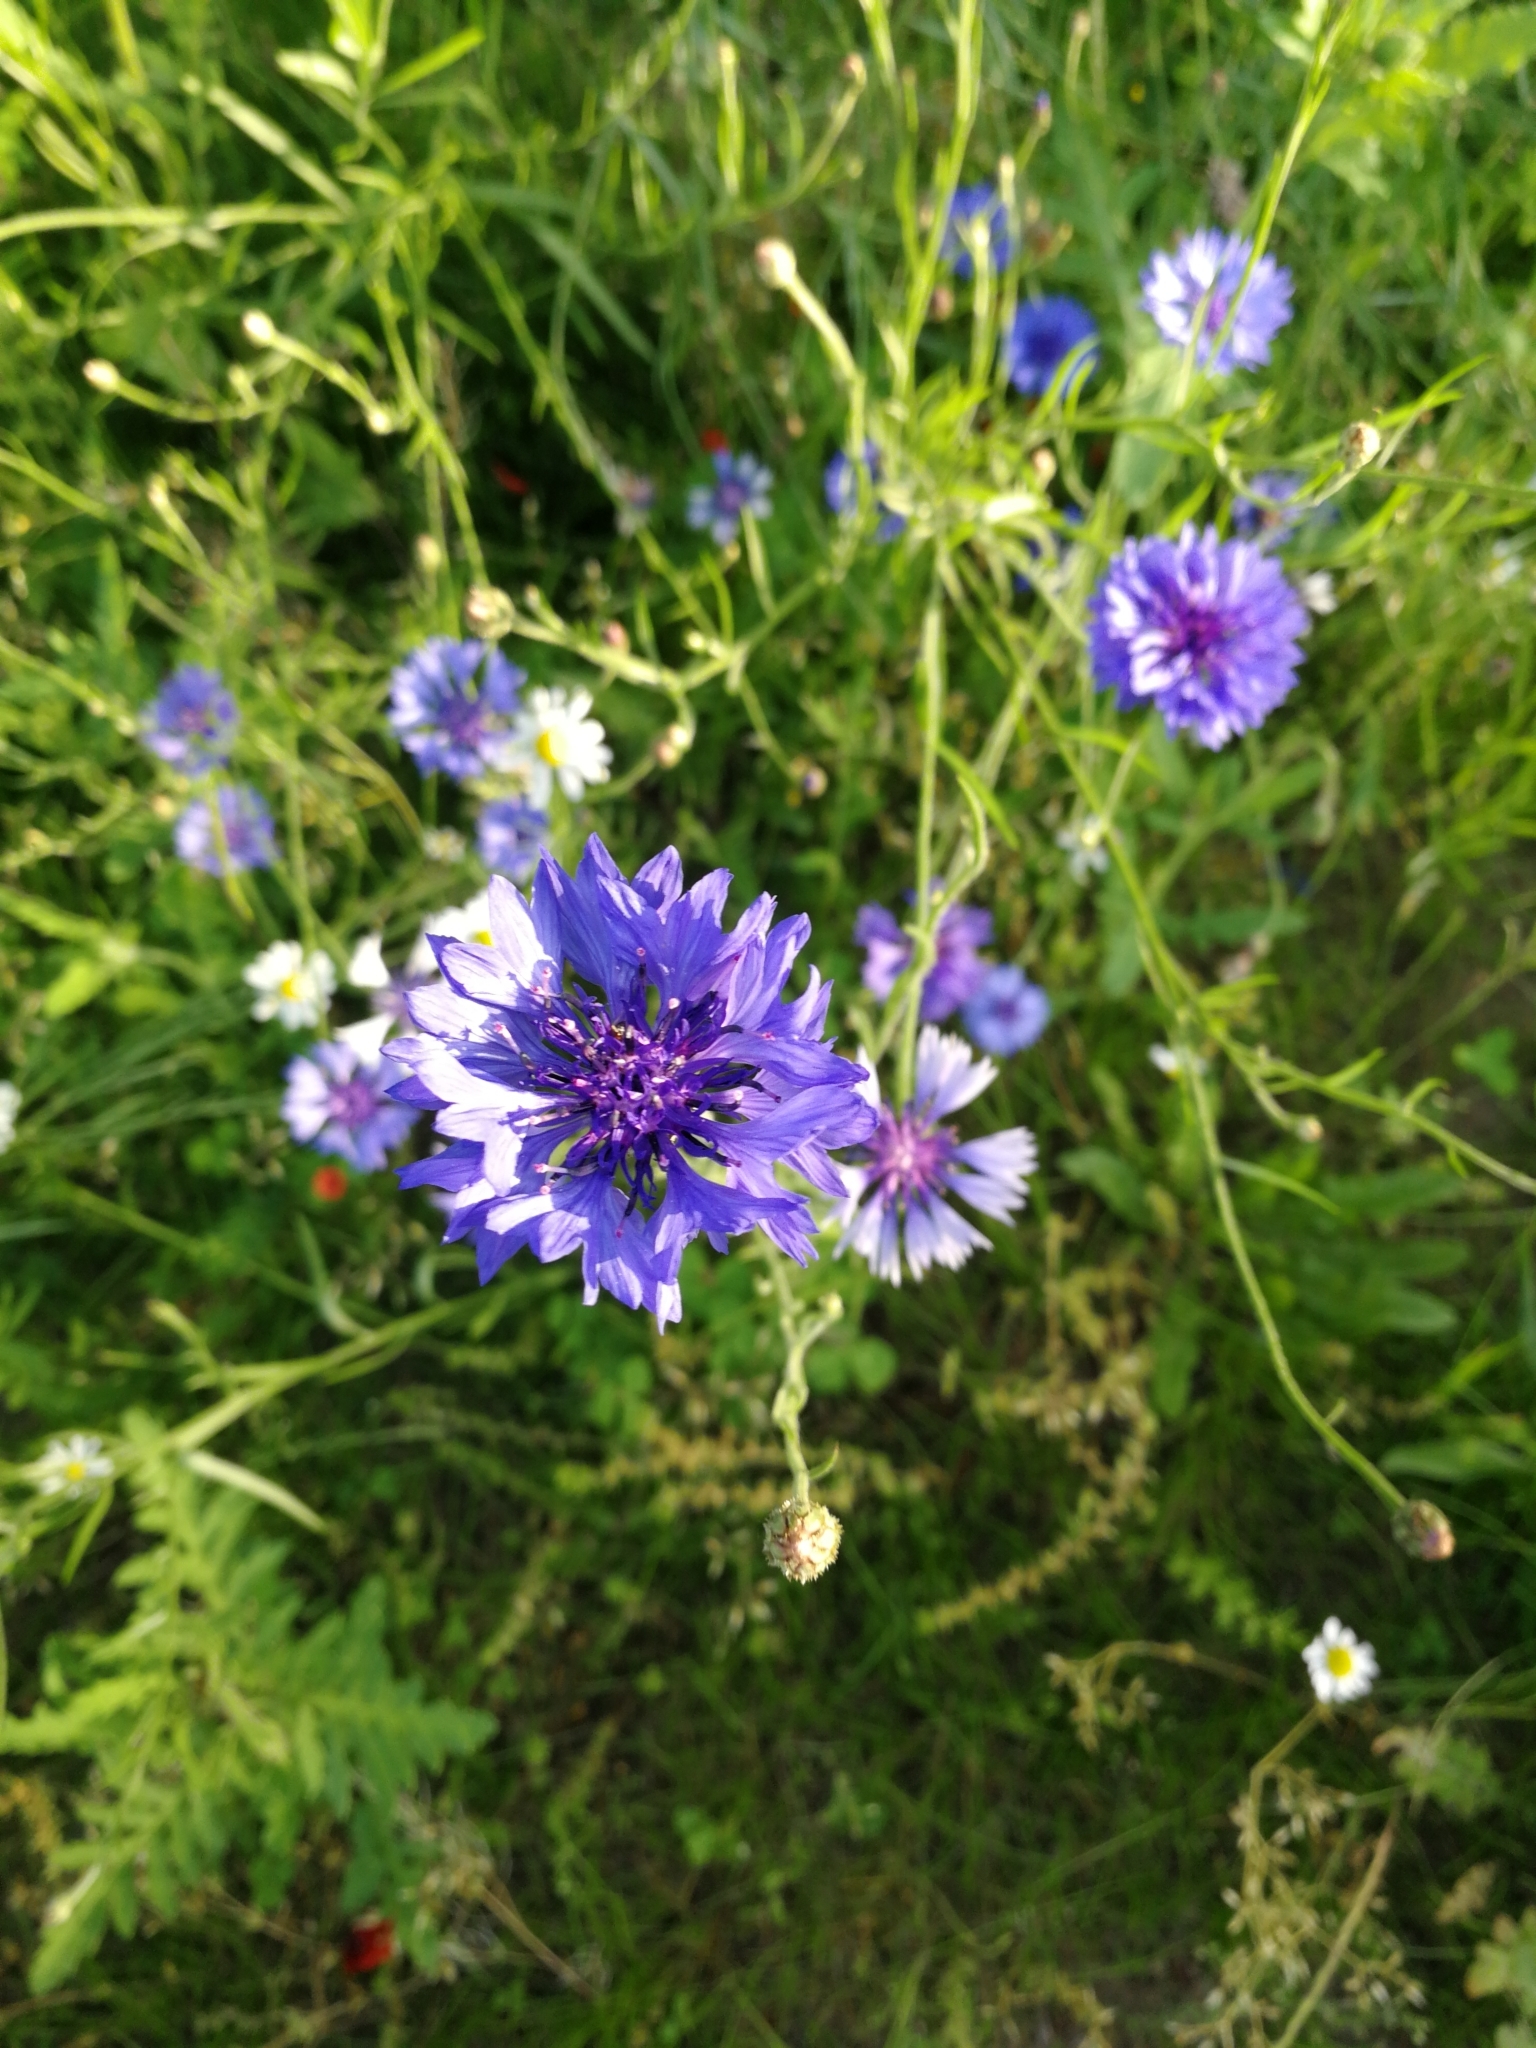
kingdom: Plantae
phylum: Tracheophyta
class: Magnoliopsida
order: Asterales
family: Asteraceae
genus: Centaurea
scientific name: Centaurea cyanus
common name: Cornflower
